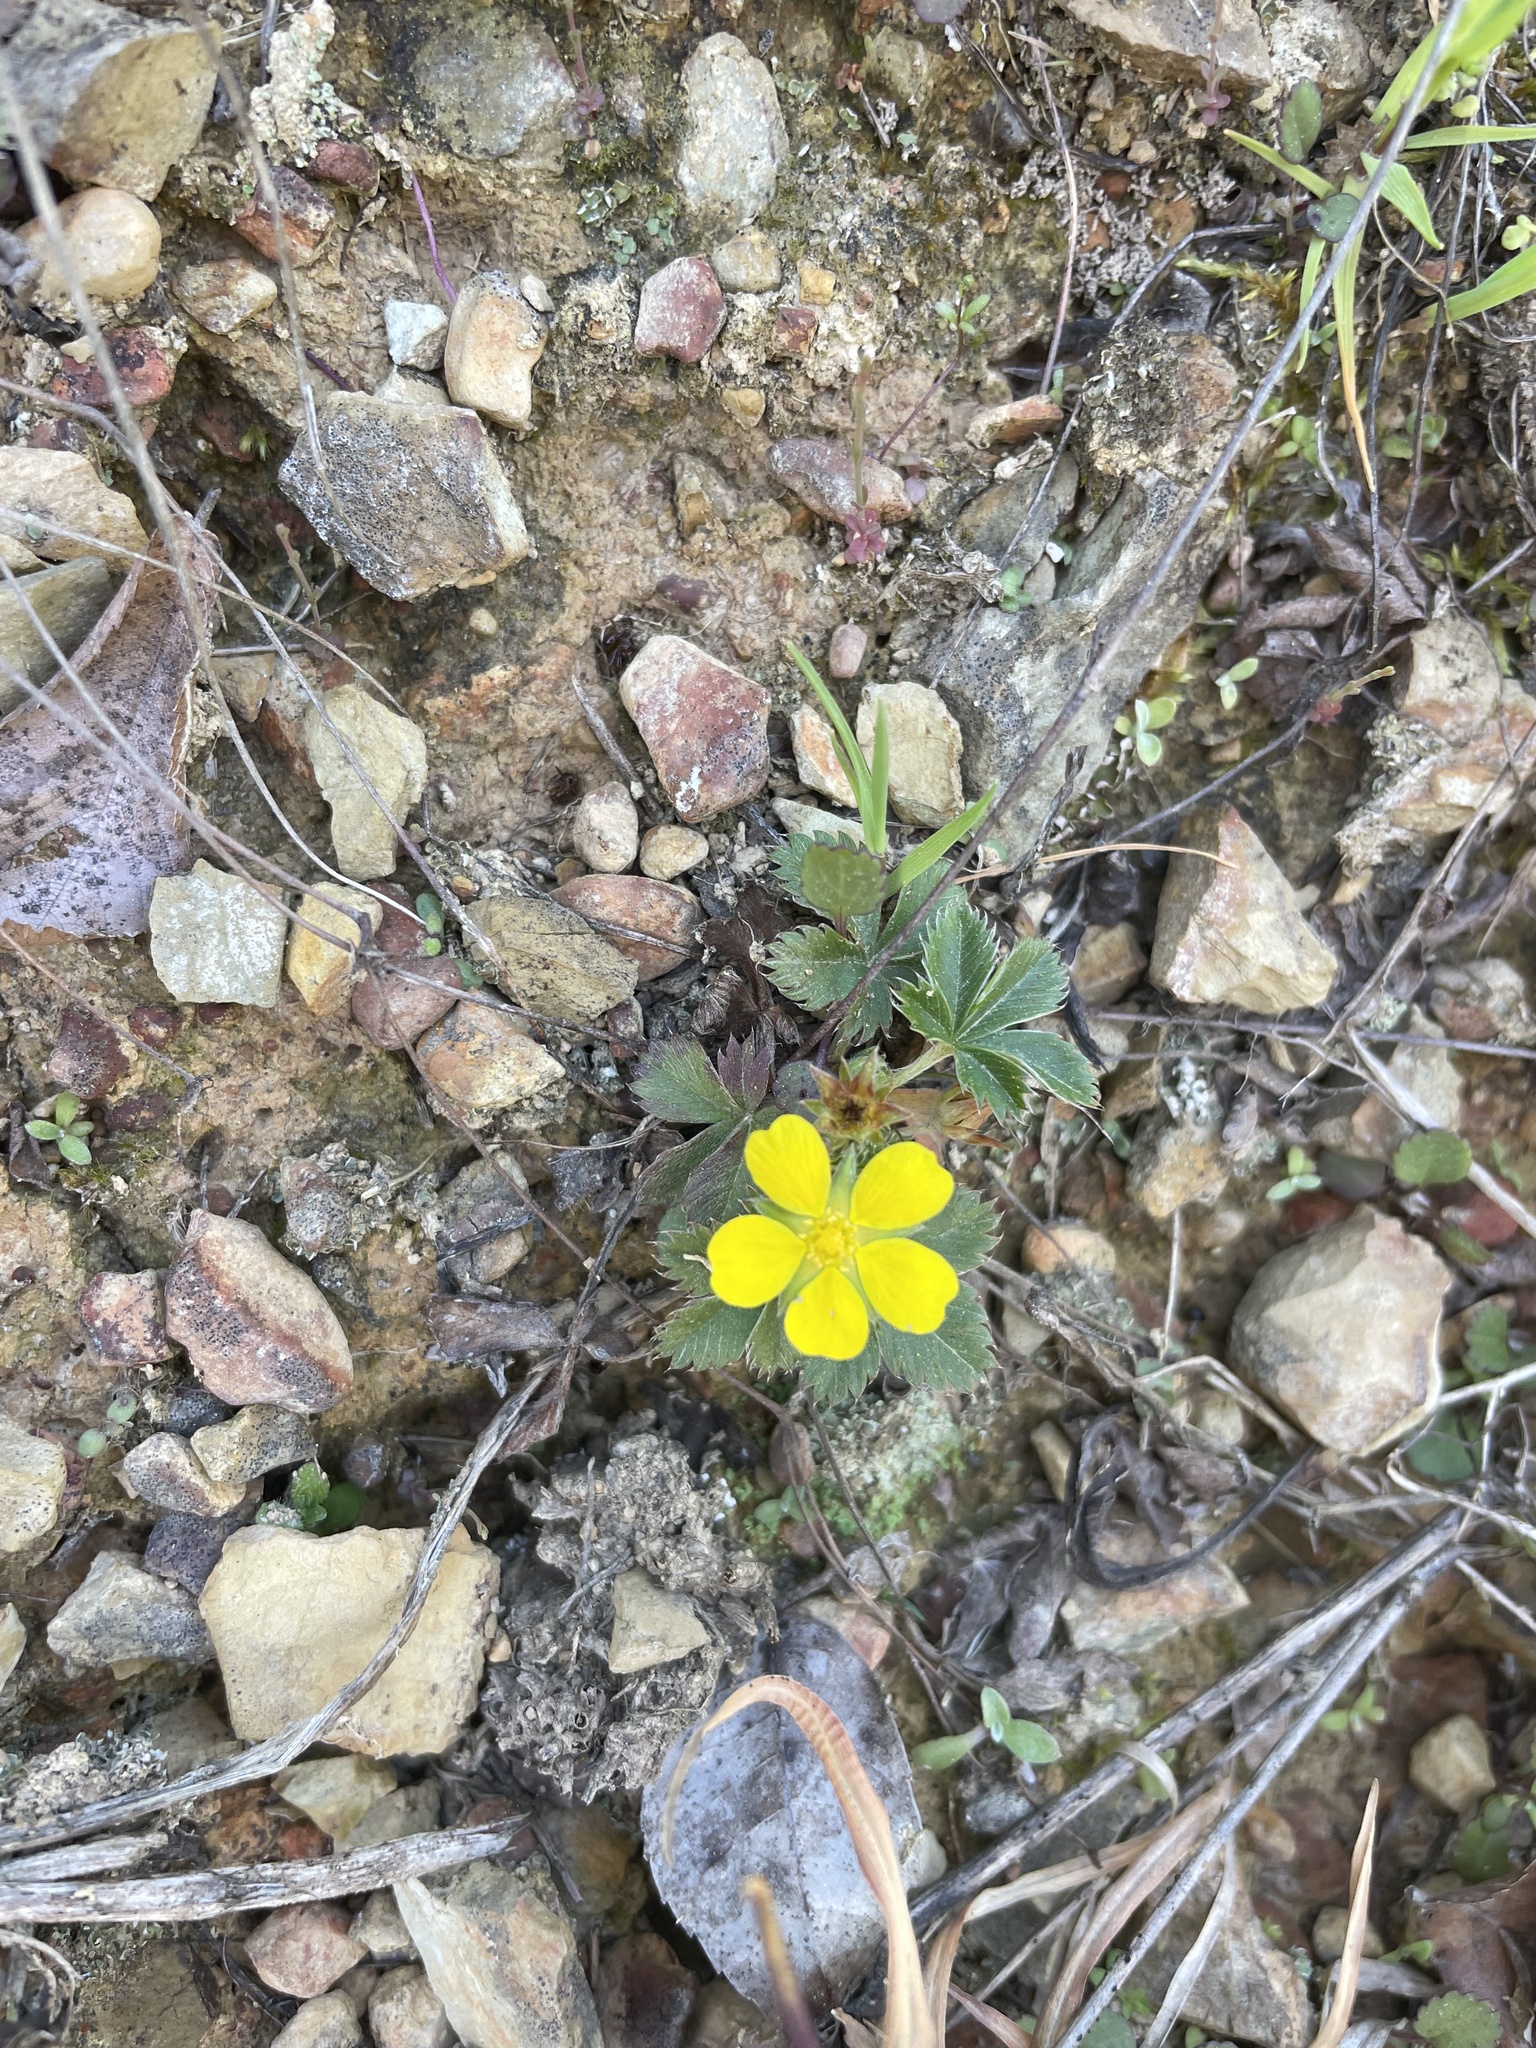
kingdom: Plantae
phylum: Tracheophyta
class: Magnoliopsida
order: Rosales
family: Rosaceae
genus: Potentilla
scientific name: Potentilla canadensis
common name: Canada cinquefoil
